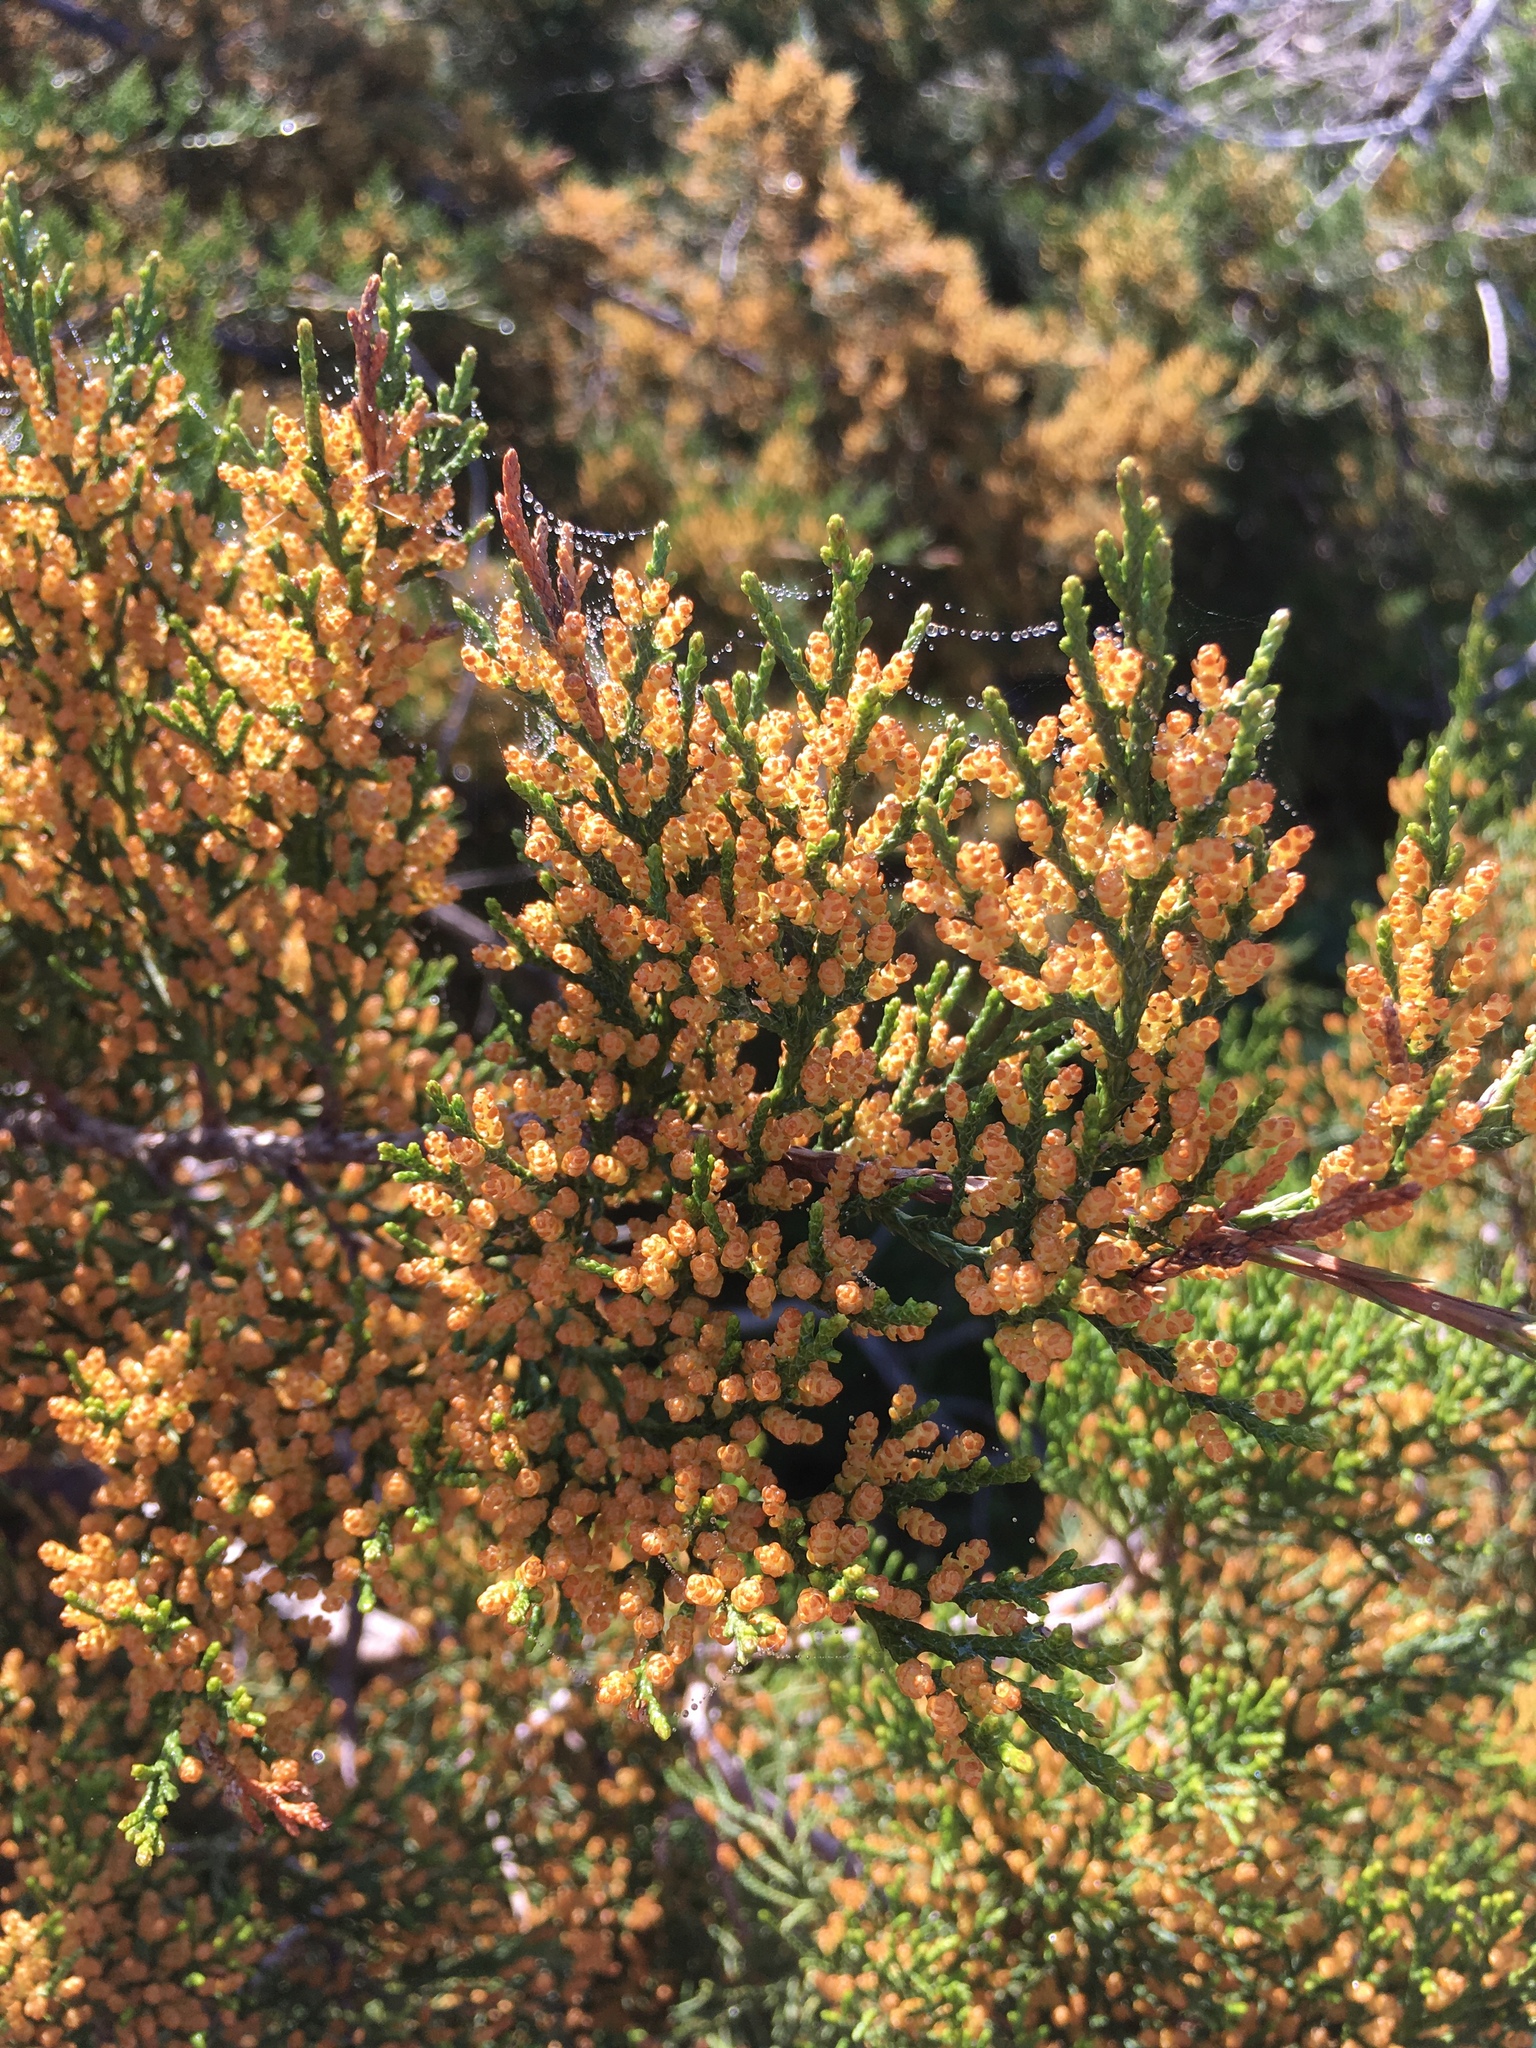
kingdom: Plantae
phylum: Tracheophyta
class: Pinopsida
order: Pinales
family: Cupressaceae
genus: Juniperus
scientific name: Juniperus virginiana
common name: Red juniper
